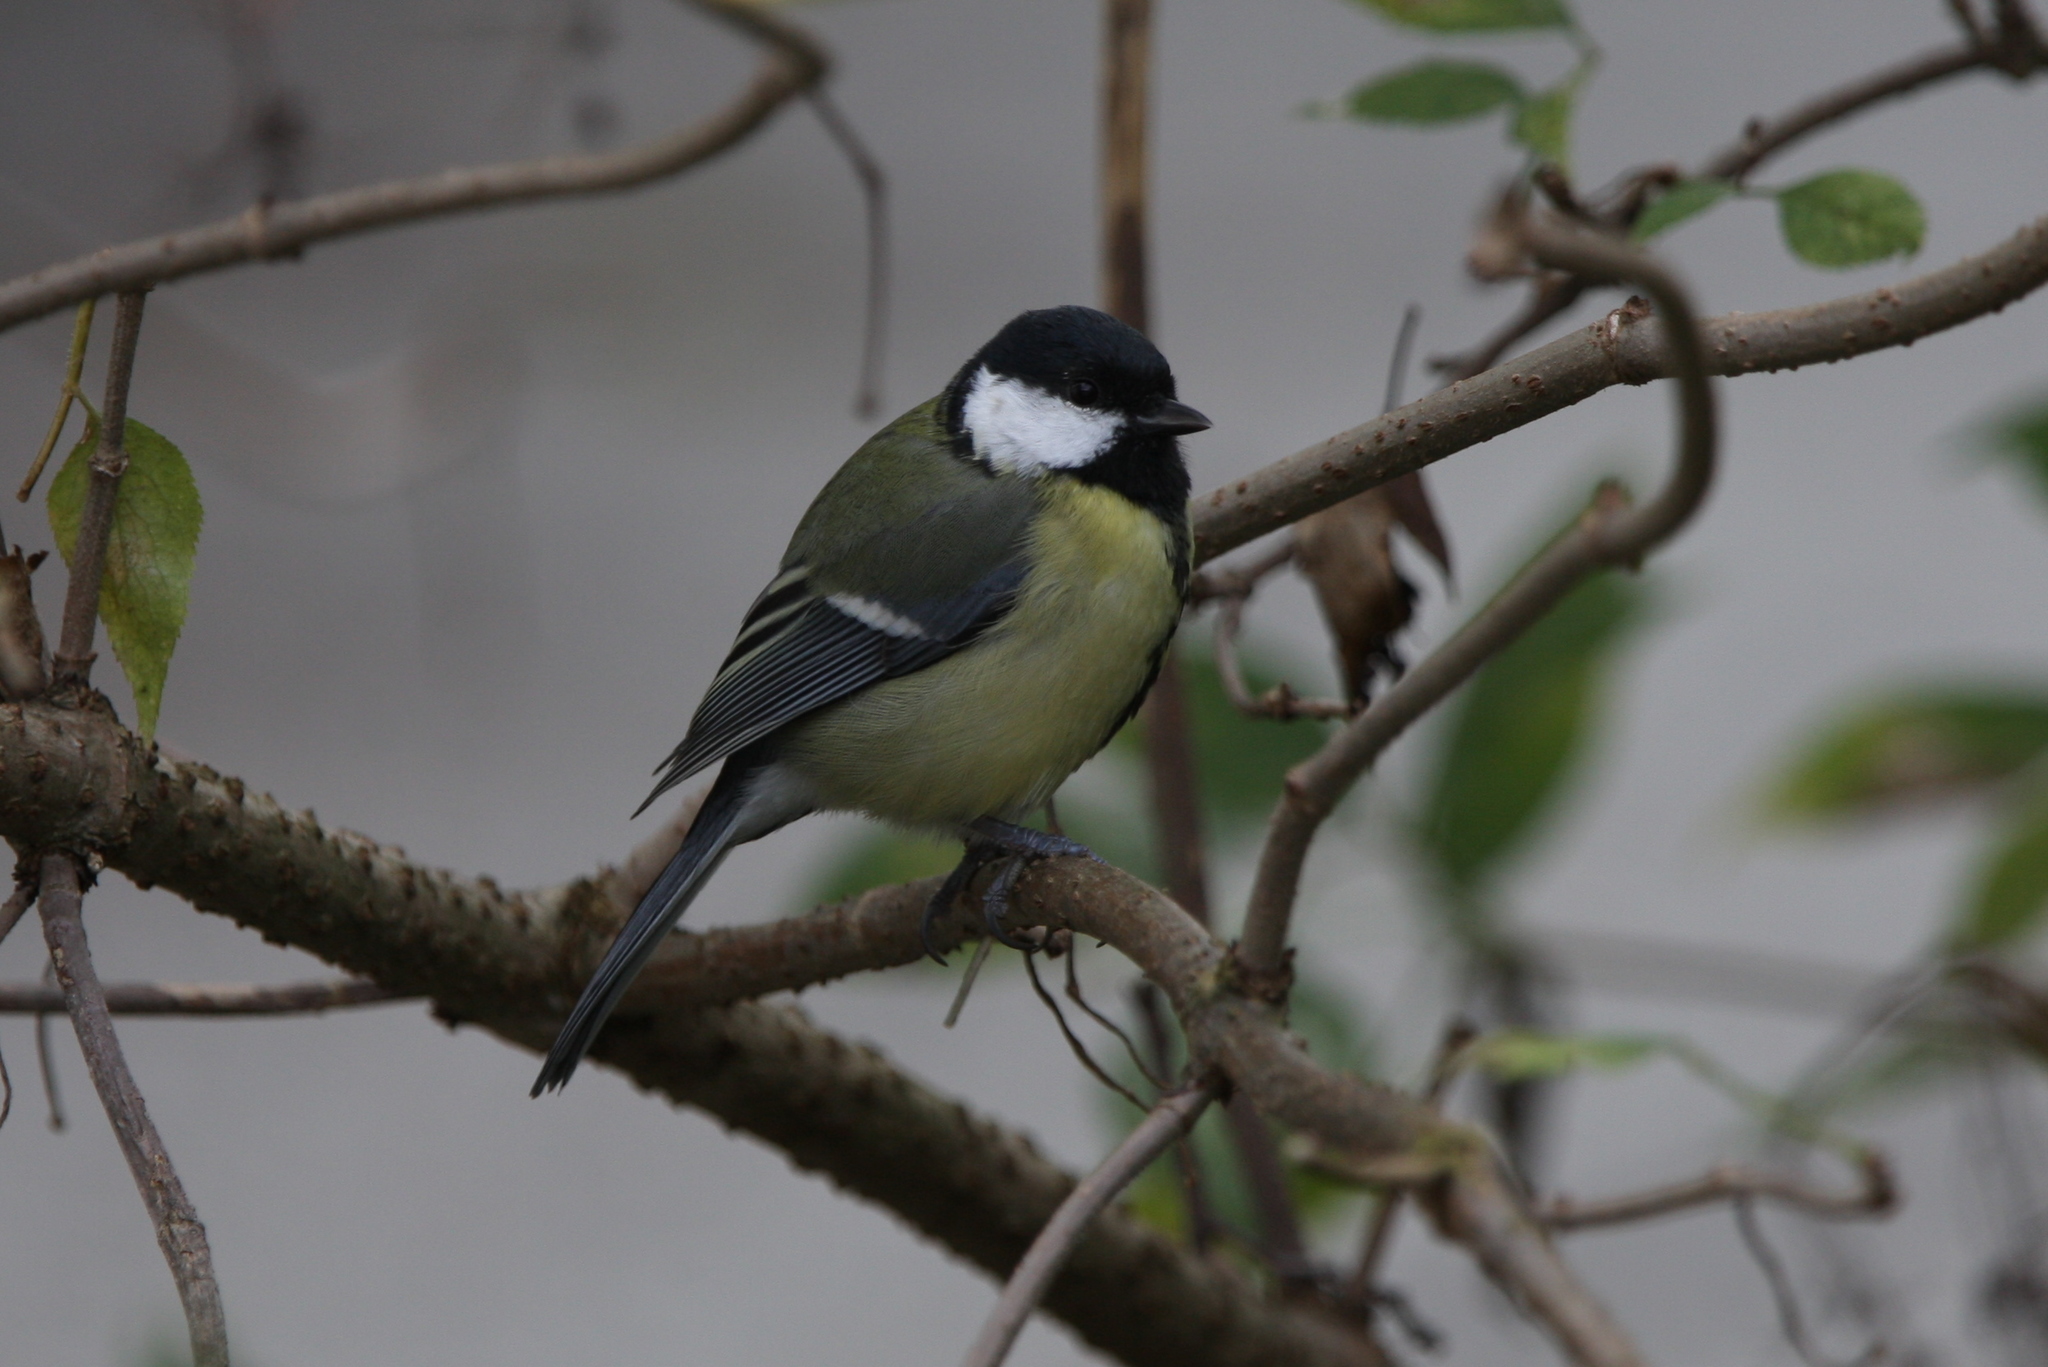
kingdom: Animalia
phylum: Chordata
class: Aves
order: Passeriformes
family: Paridae
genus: Parus
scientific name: Parus major
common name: Great tit
